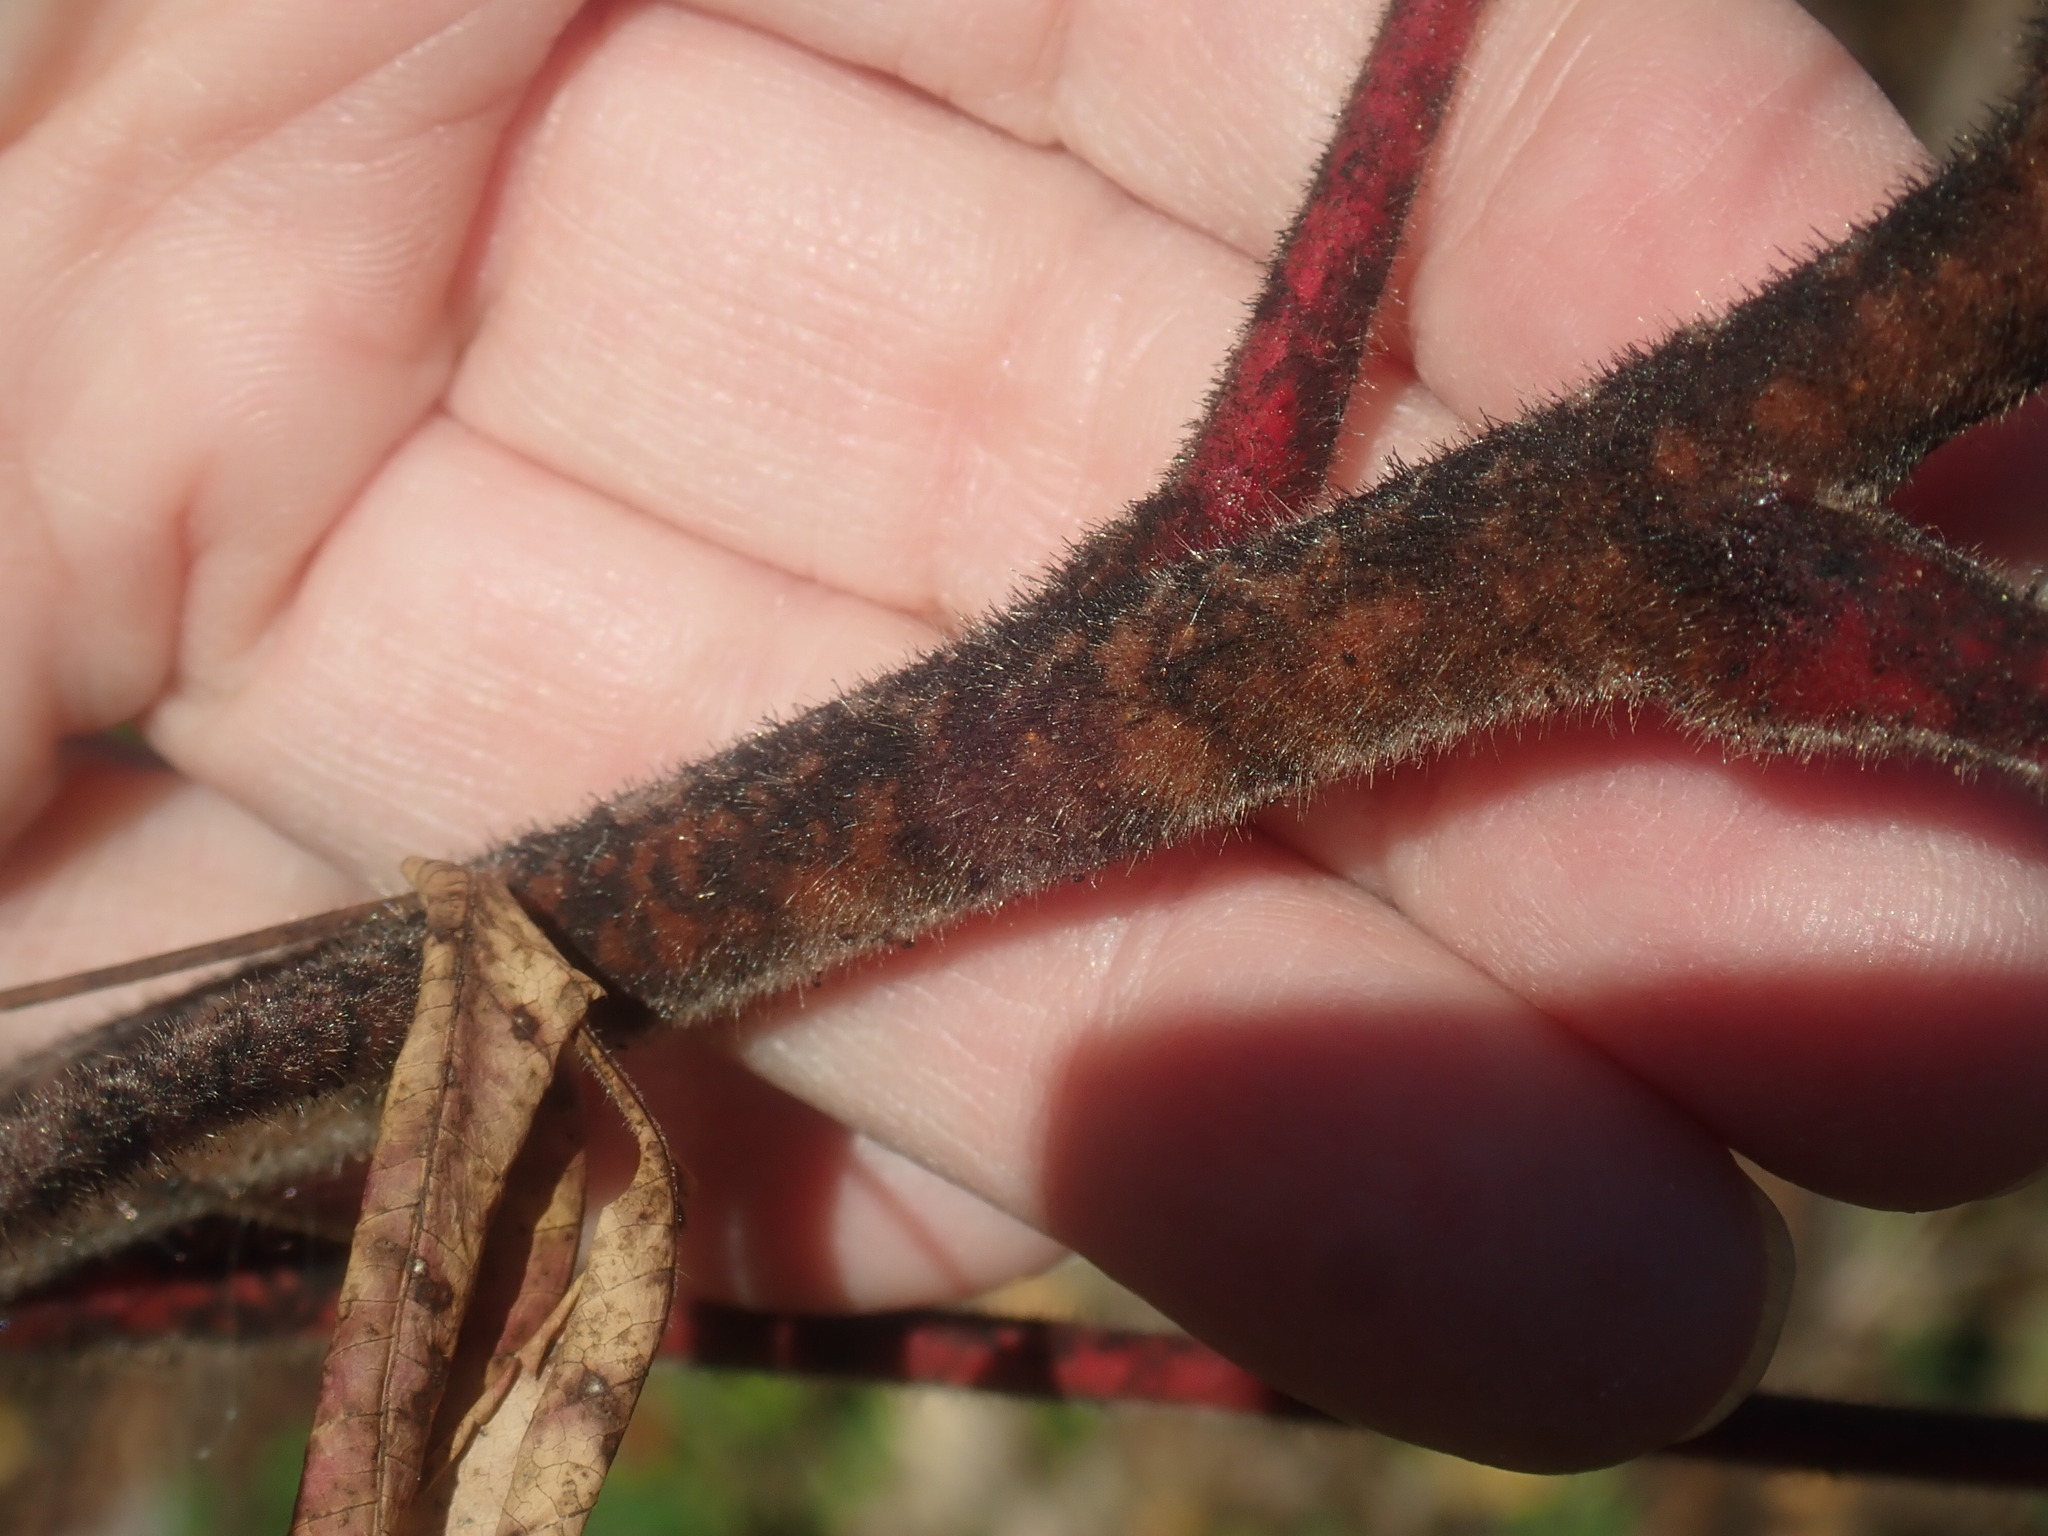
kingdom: Plantae
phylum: Tracheophyta
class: Magnoliopsida
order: Sapindales
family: Anacardiaceae
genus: Rhus
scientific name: Rhus typhina
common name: Staghorn sumac
